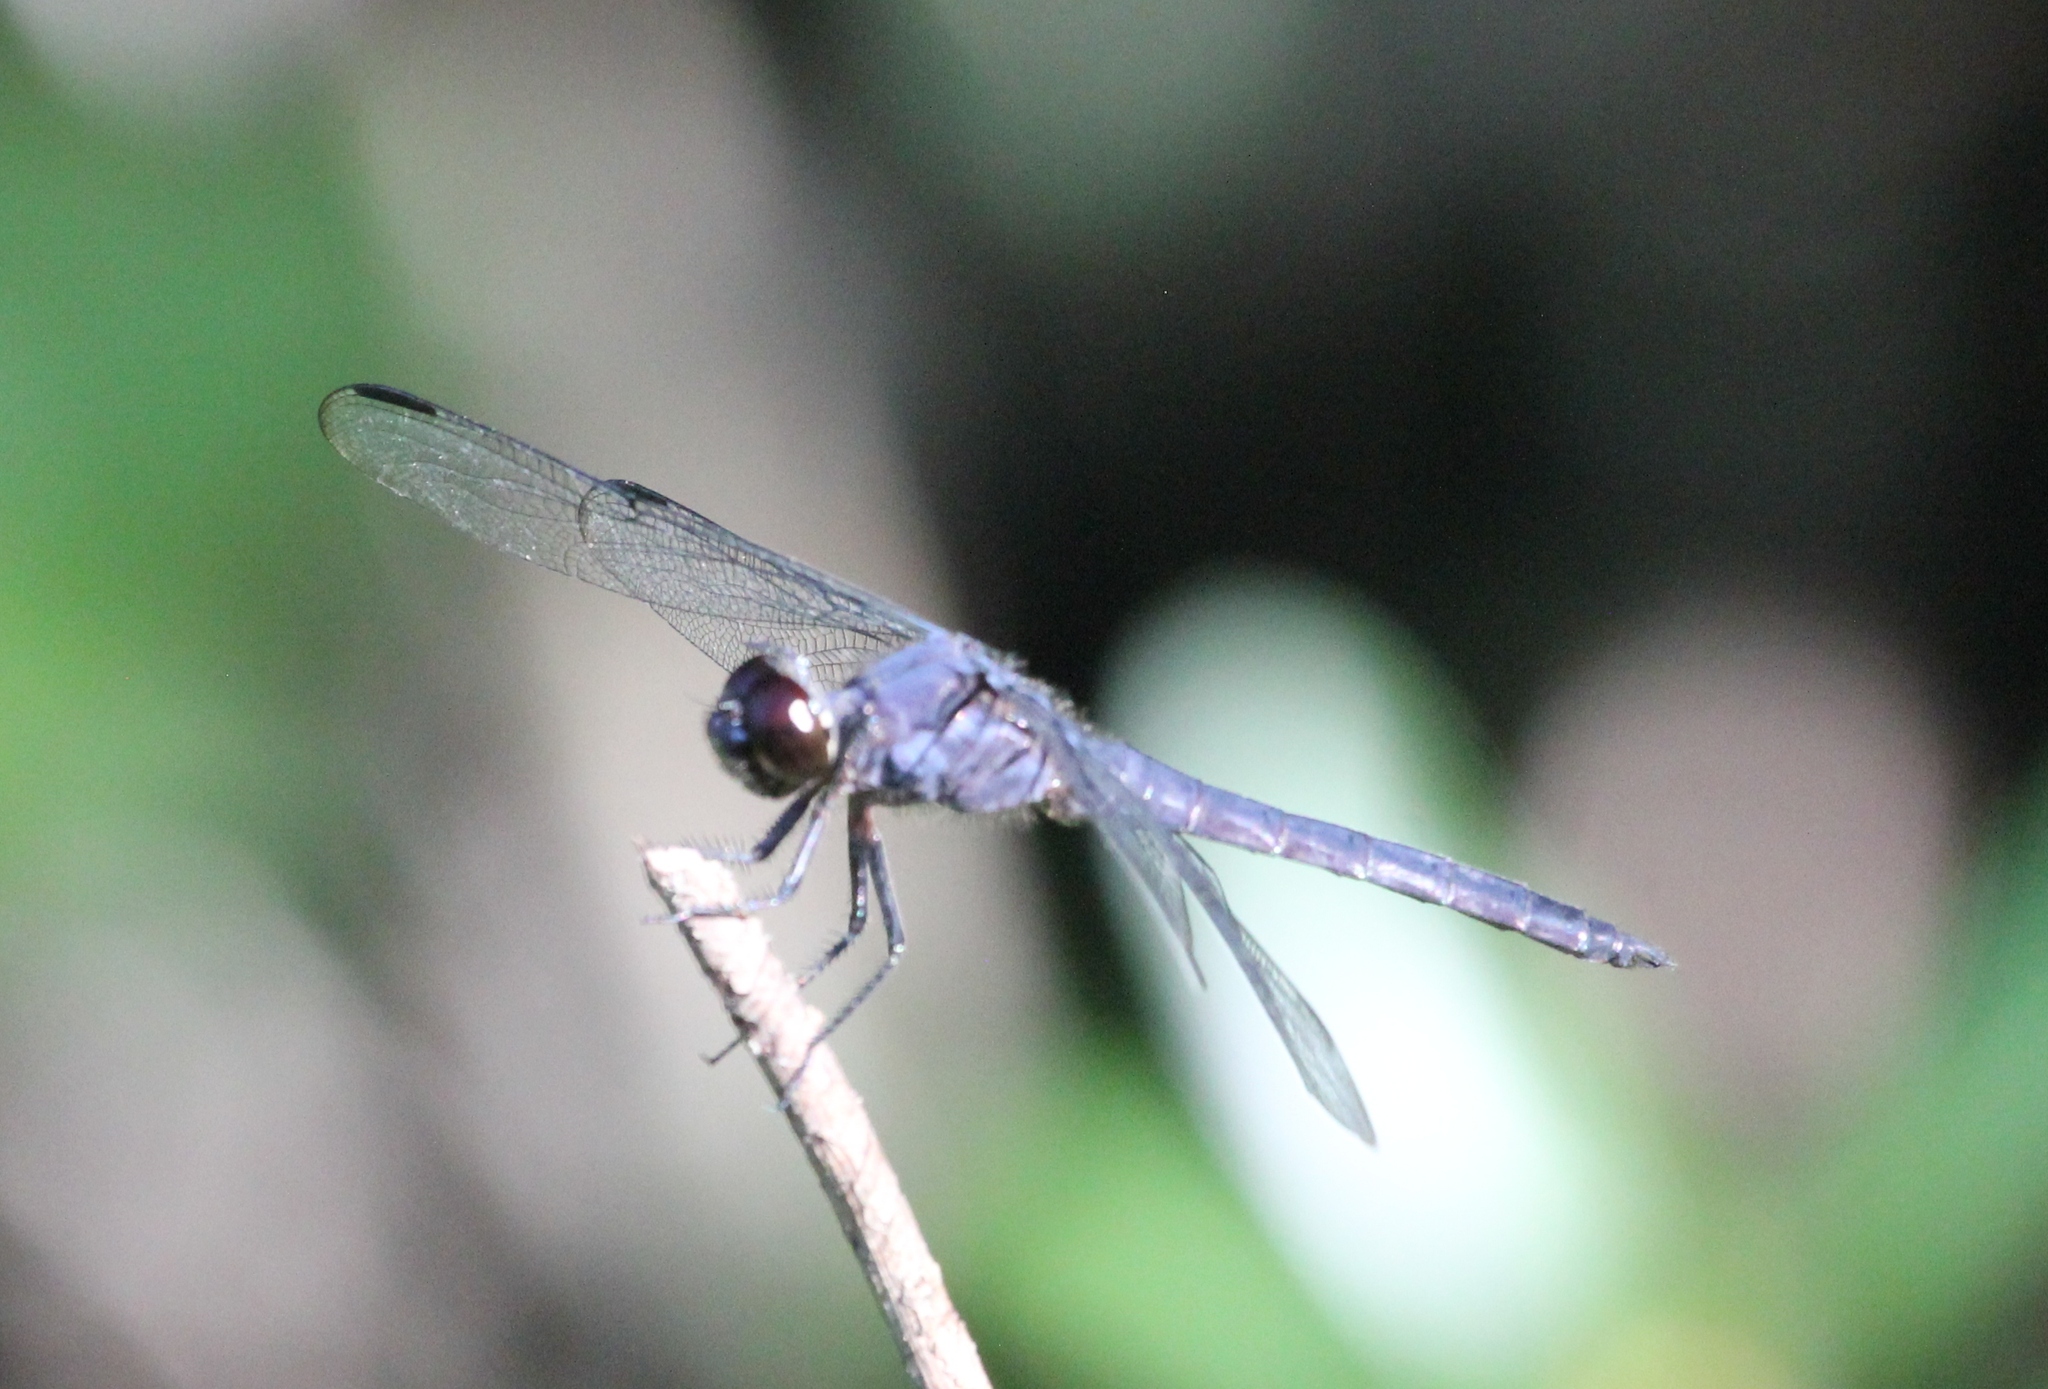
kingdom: Animalia
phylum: Arthropoda
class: Insecta
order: Odonata
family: Libellulidae
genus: Libellula
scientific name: Libellula incesta
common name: Slaty skimmer
